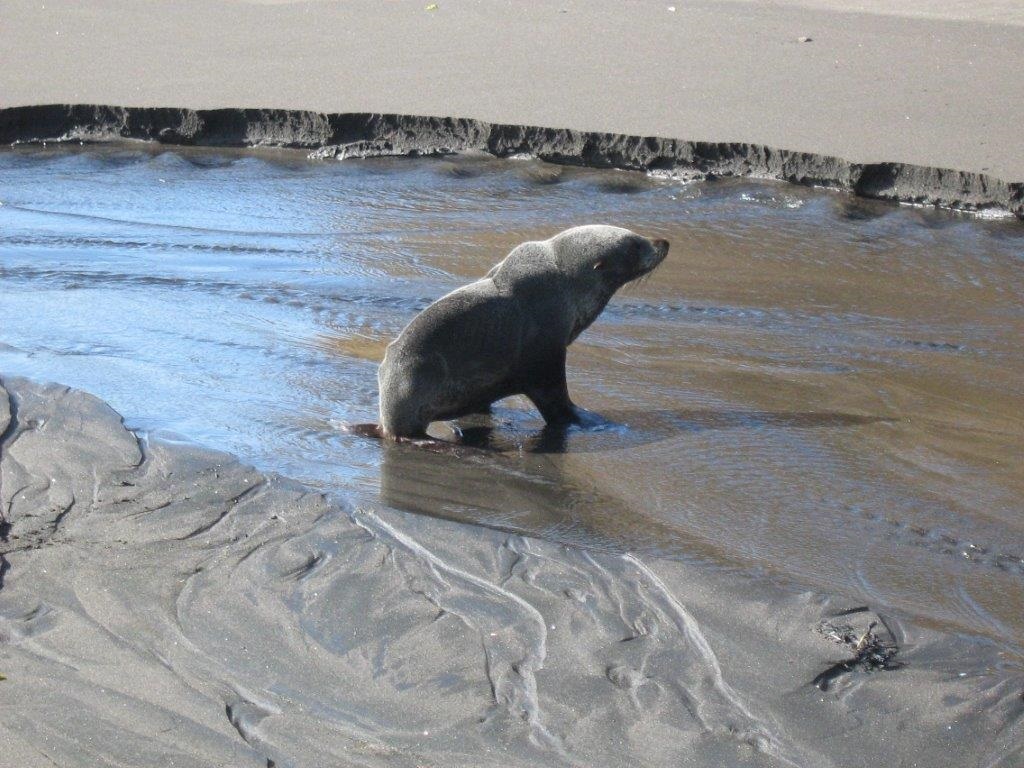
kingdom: Animalia
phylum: Chordata
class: Mammalia
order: Carnivora
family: Otariidae
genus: Arctocephalus
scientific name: Arctocephalus forsteri
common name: New zealand fur seal
